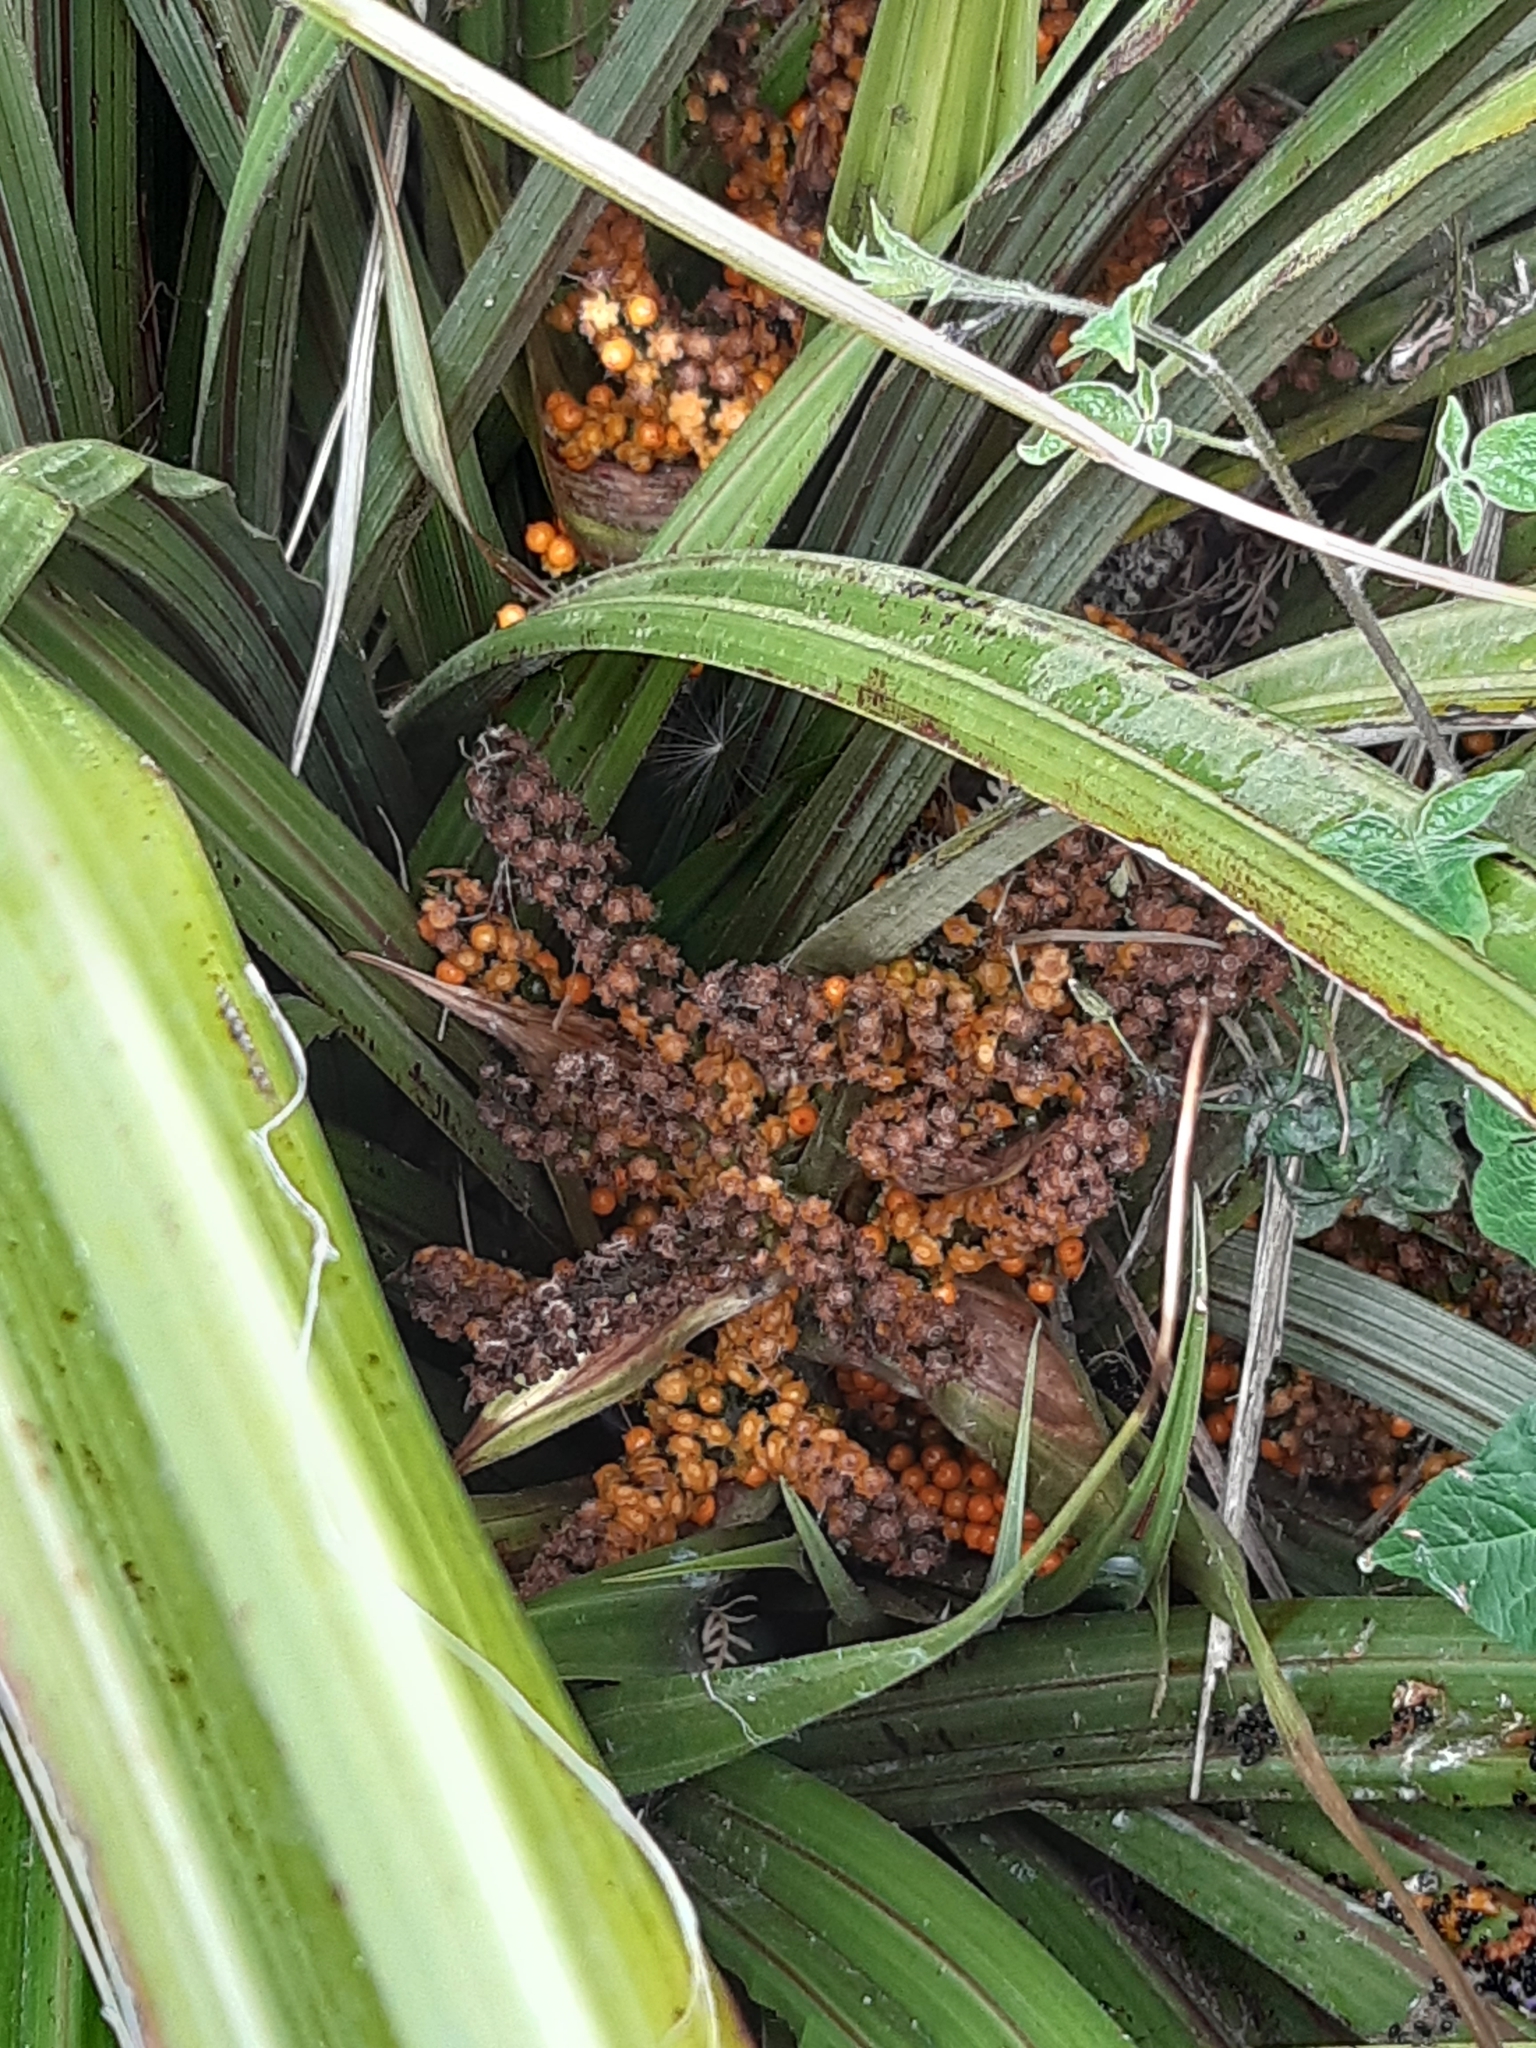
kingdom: Plantae
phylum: Tracheophyta
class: Liliopsida
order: Asparagales
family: Asteliaceae
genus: Astelia
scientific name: Astelia fragrans
